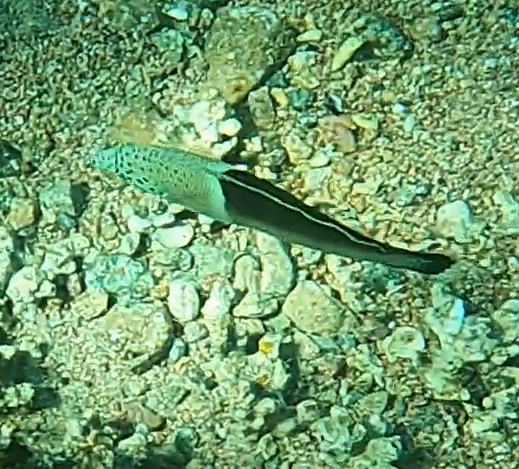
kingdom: Animalia
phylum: Chordata
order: Perciformes
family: Labridae
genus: Coris
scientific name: Coris aygula
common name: Clown coris
